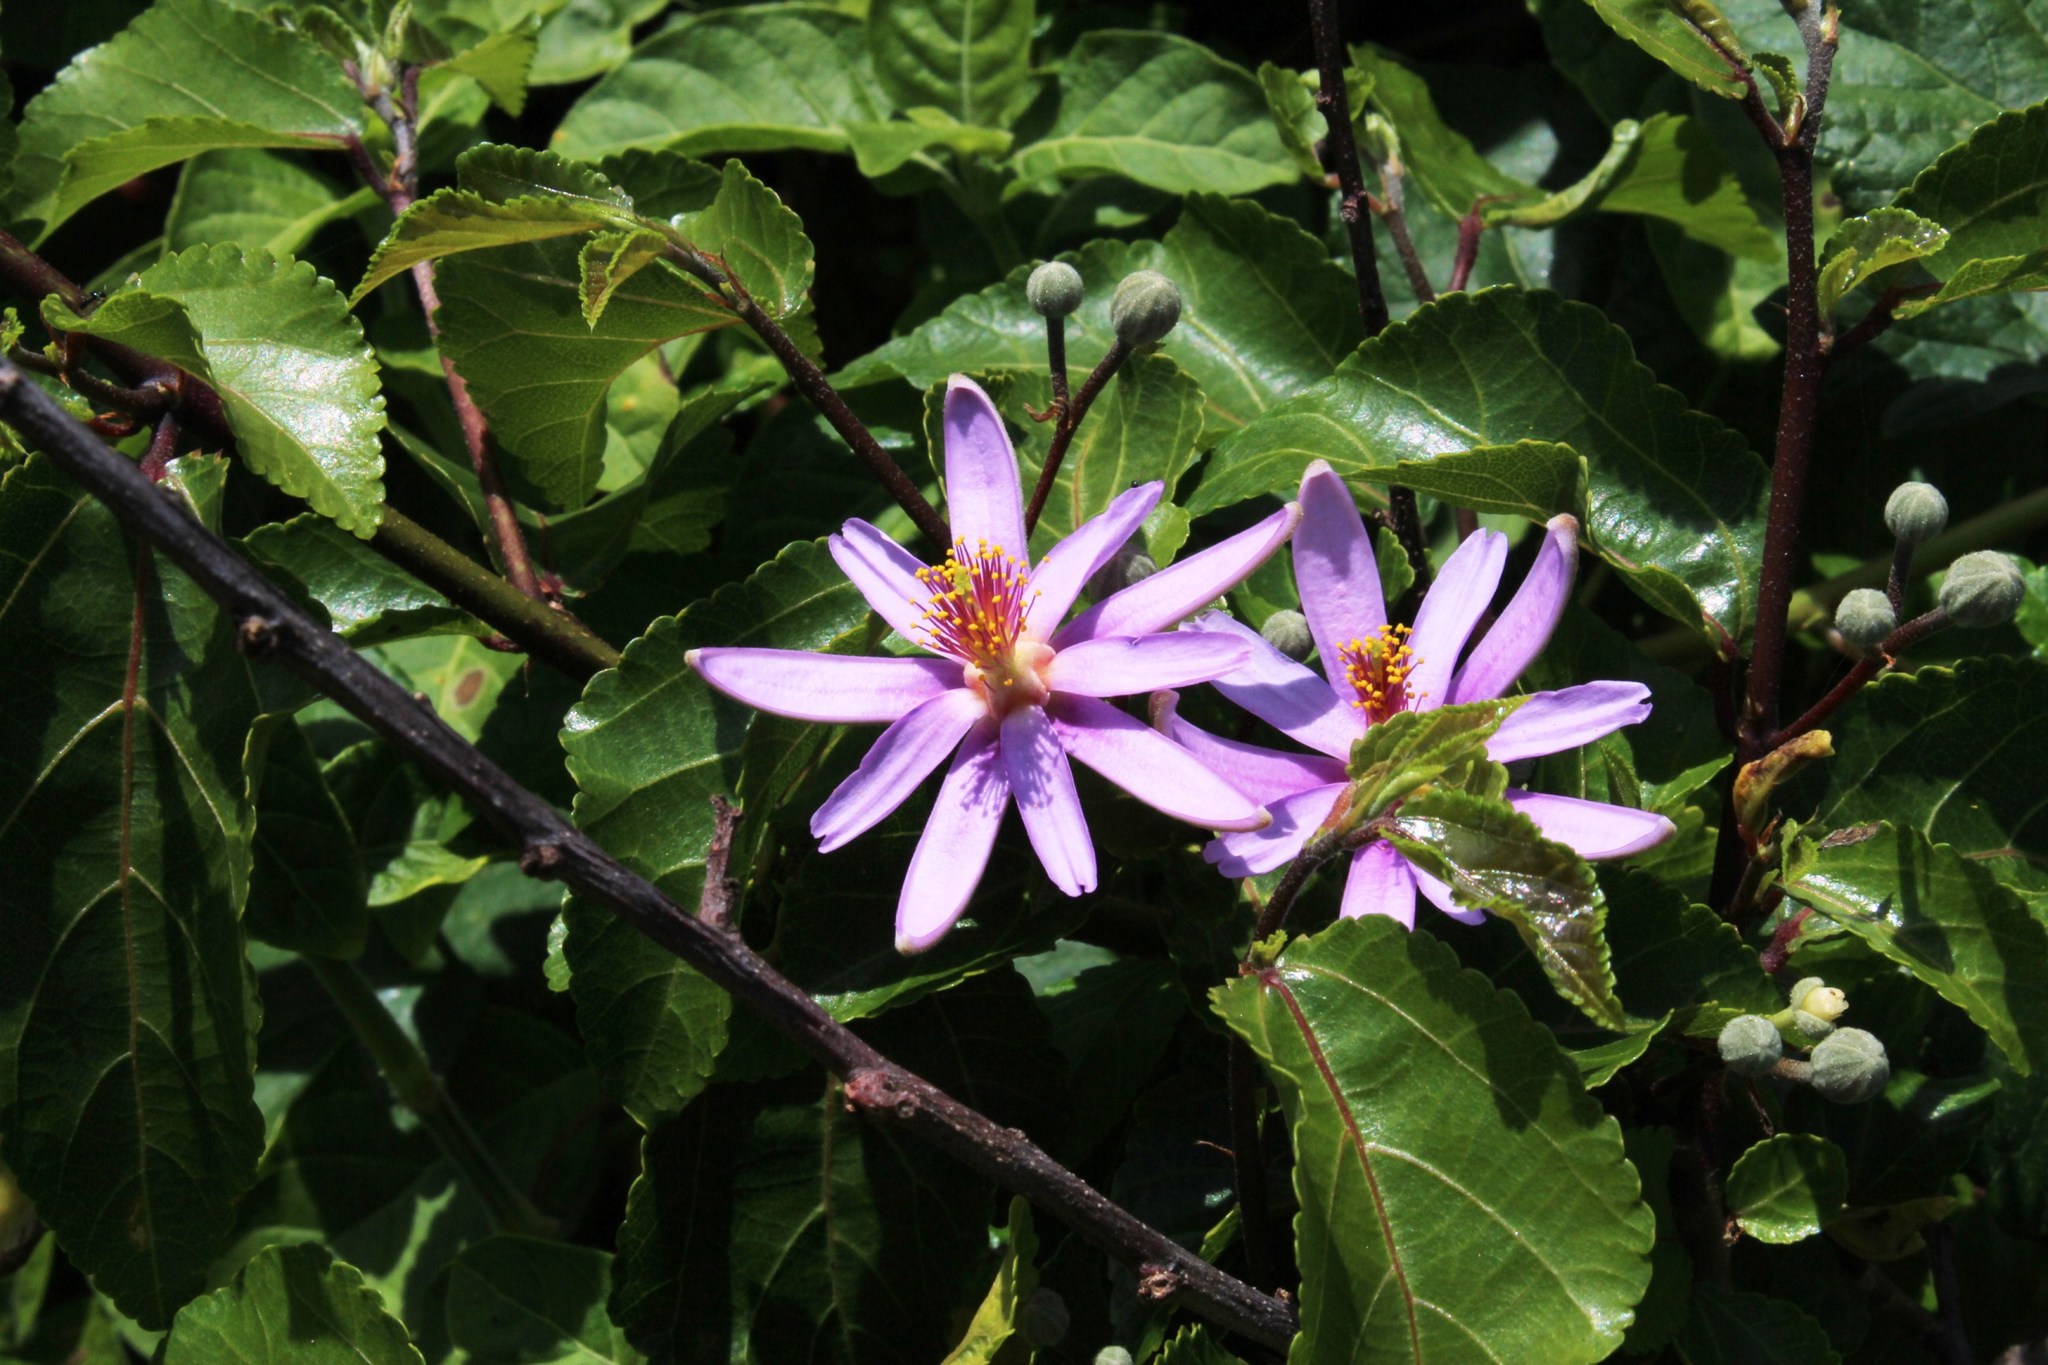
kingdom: Plantae
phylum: Tracheophyta
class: Magnoliopsida
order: Malvales
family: Malvaceae
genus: Grewia
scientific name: Grewia occidentalis
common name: Crossberry
